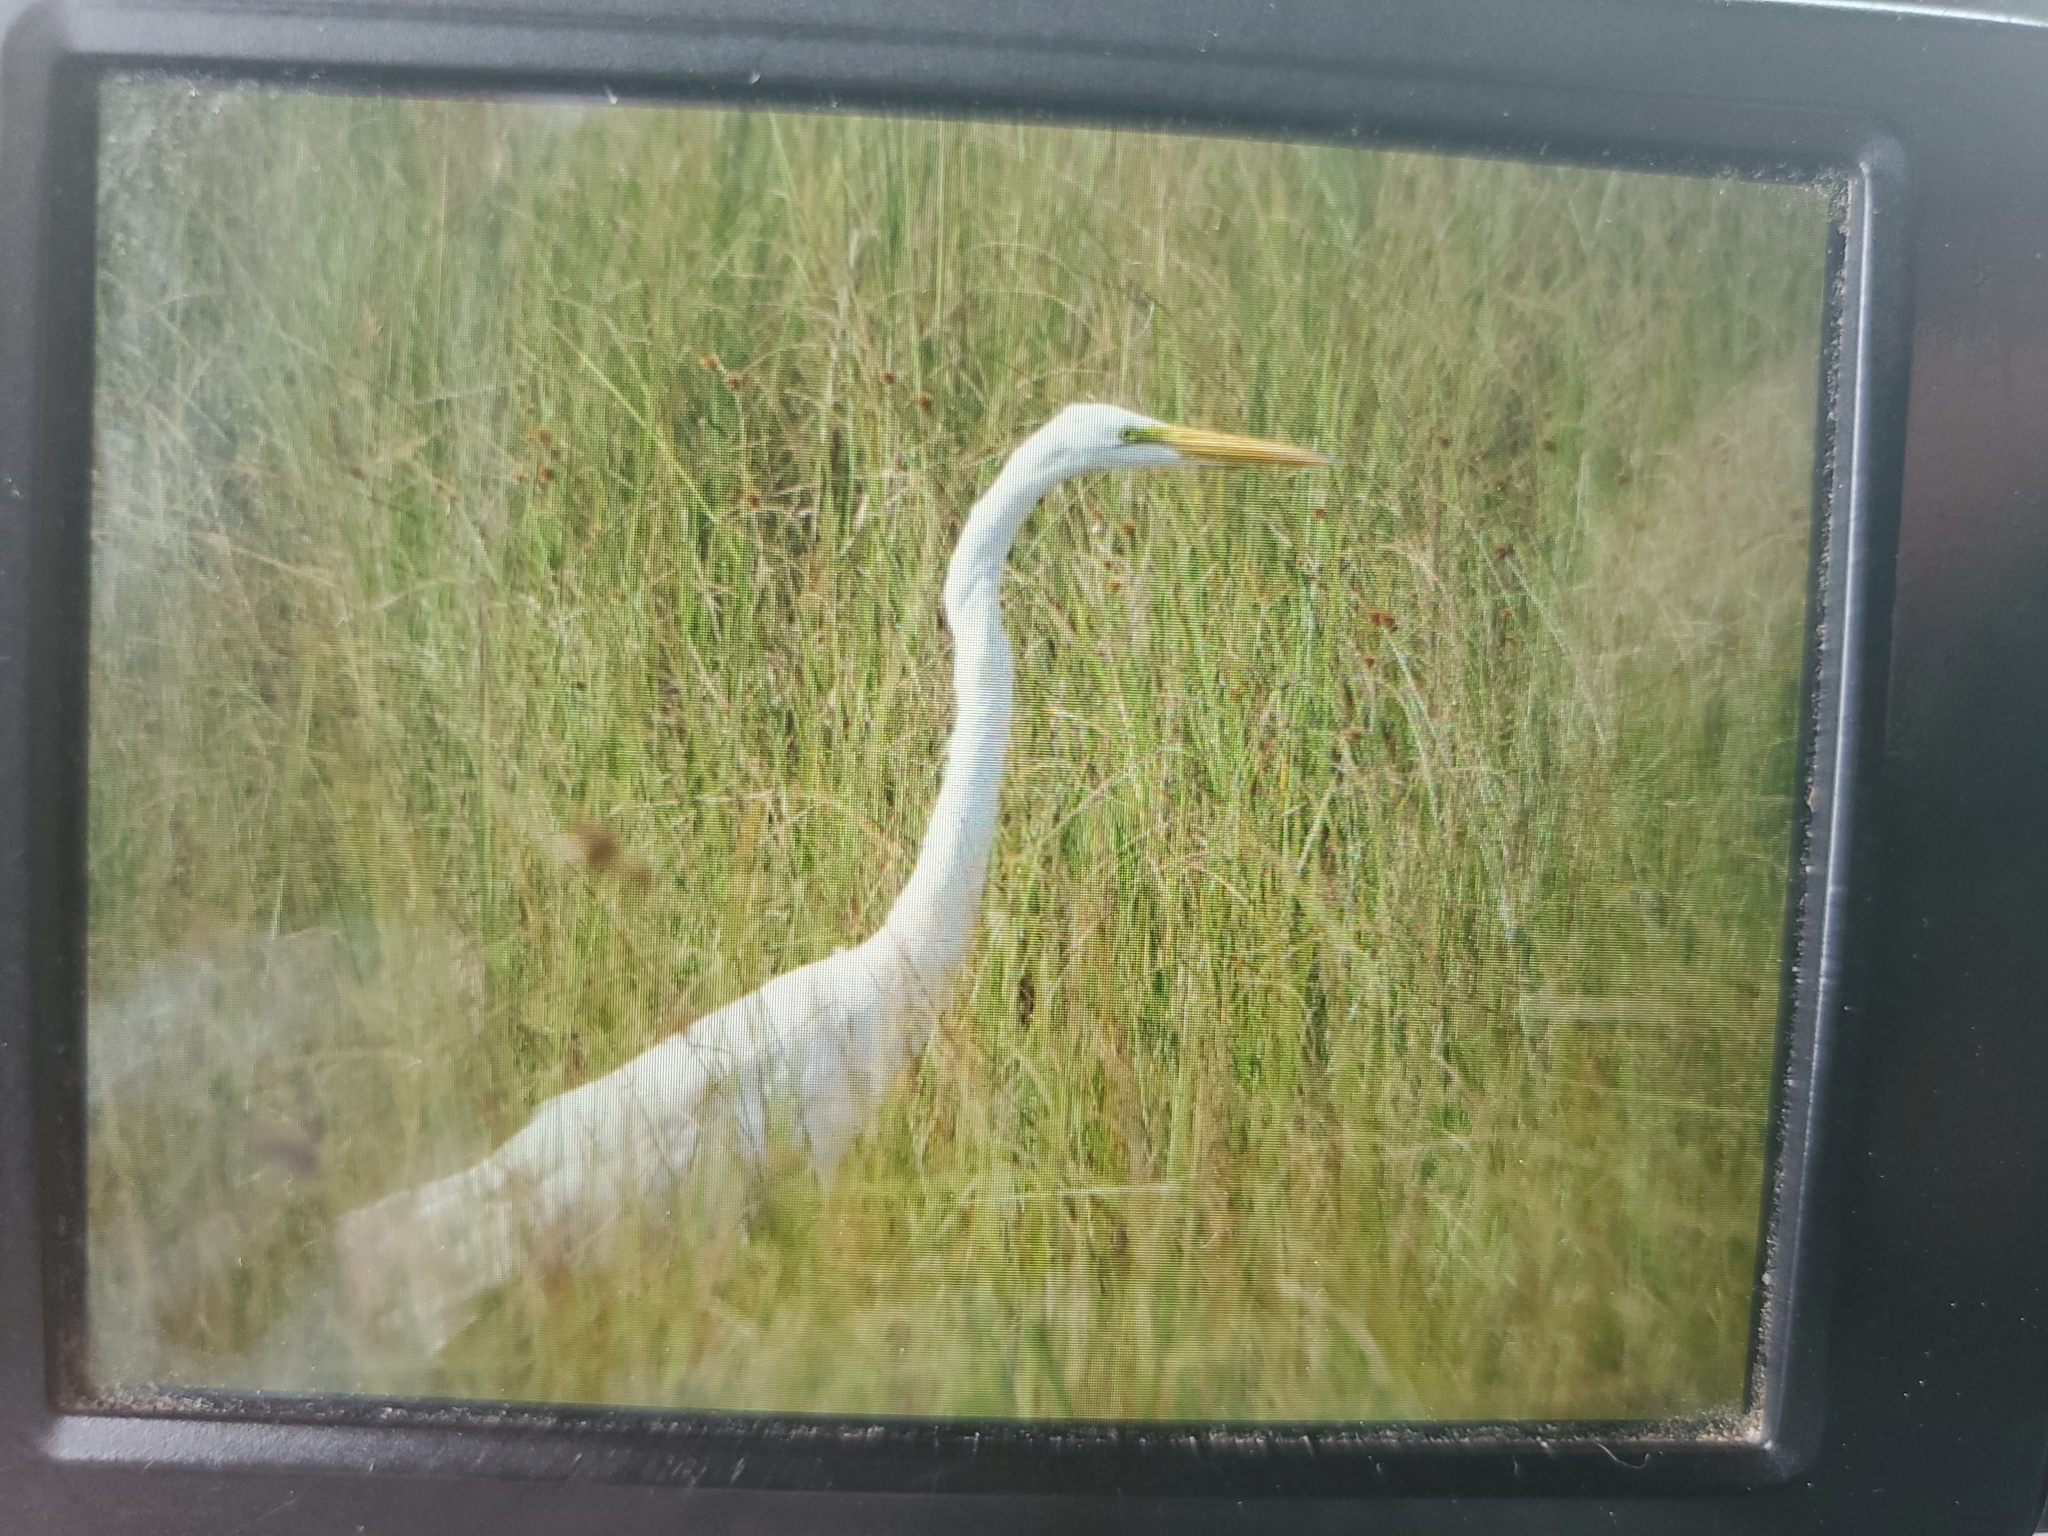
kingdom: Animalia
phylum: Chordata
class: Aves
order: Pelecaniformes
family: Ardeidae
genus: Ardea
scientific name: Ardea alba
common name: Great egret
